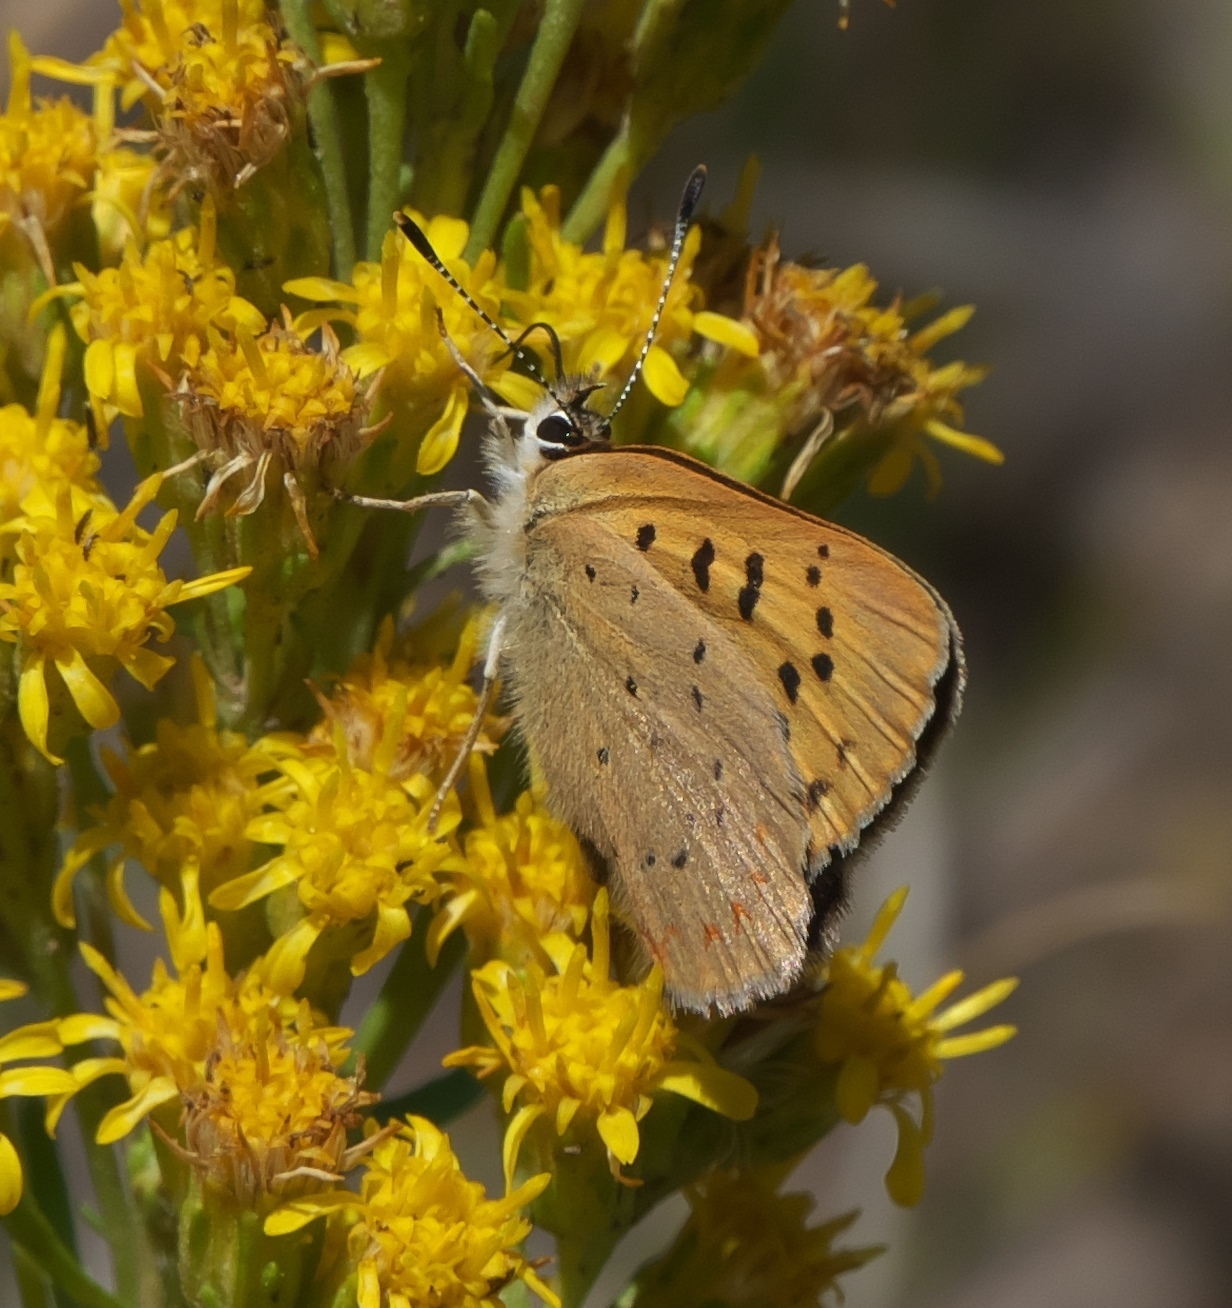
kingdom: Animalia
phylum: Arthropoda
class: Insecta
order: Lepidoptera
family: Lycaenidae
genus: Tharsalea
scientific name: Tharsalea dorcas
